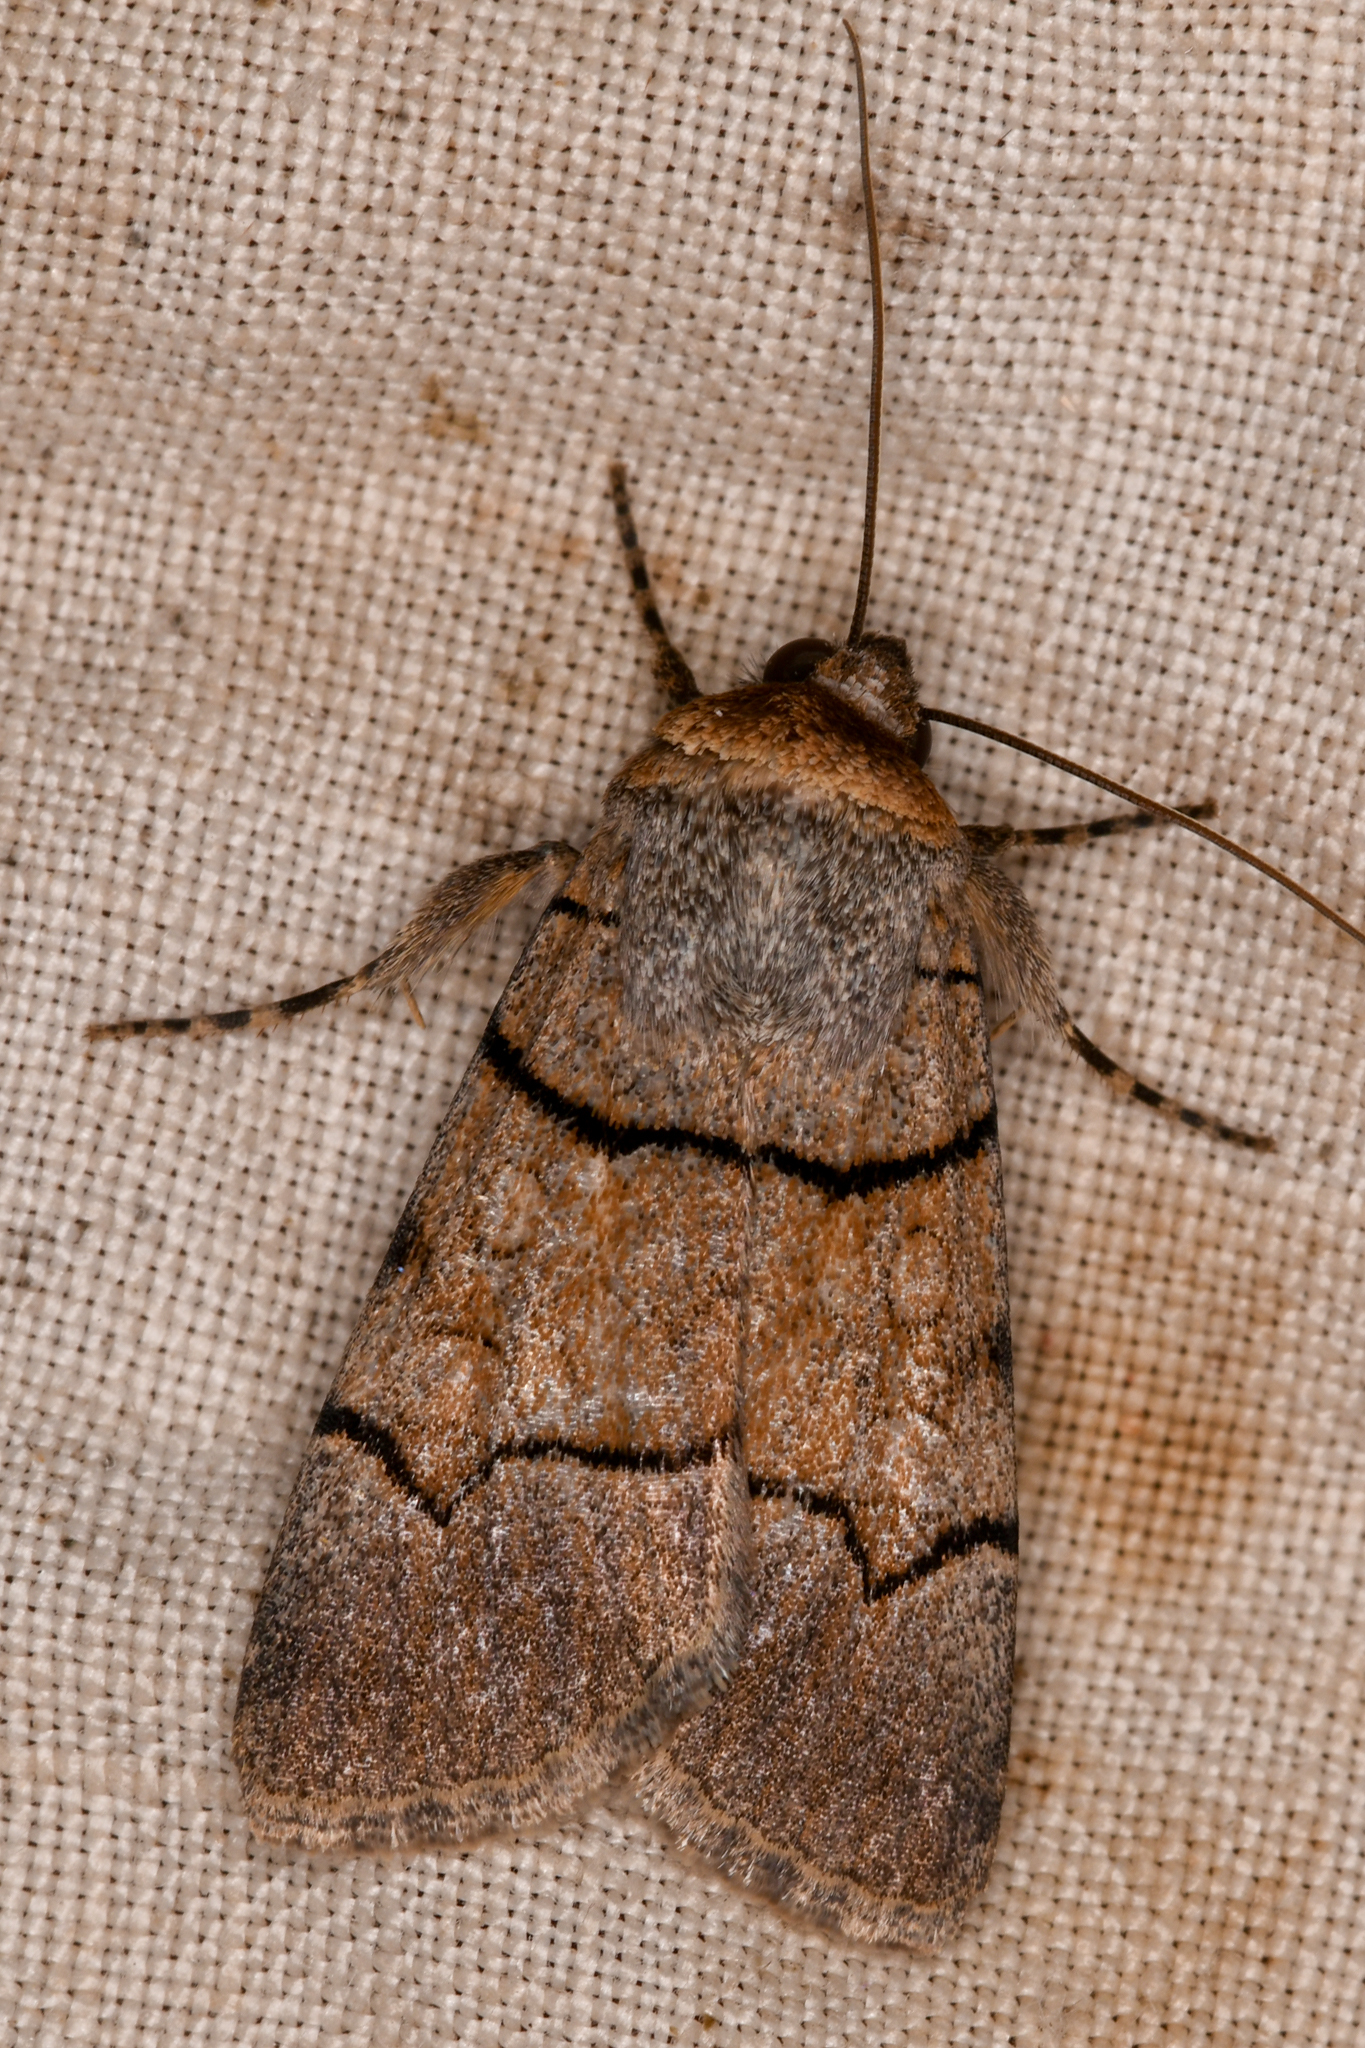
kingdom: Animalia
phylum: Arthropoda
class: Insecta
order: Lepidoptera
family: Noctuidae
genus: Sympistis
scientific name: Sympistis youngi
